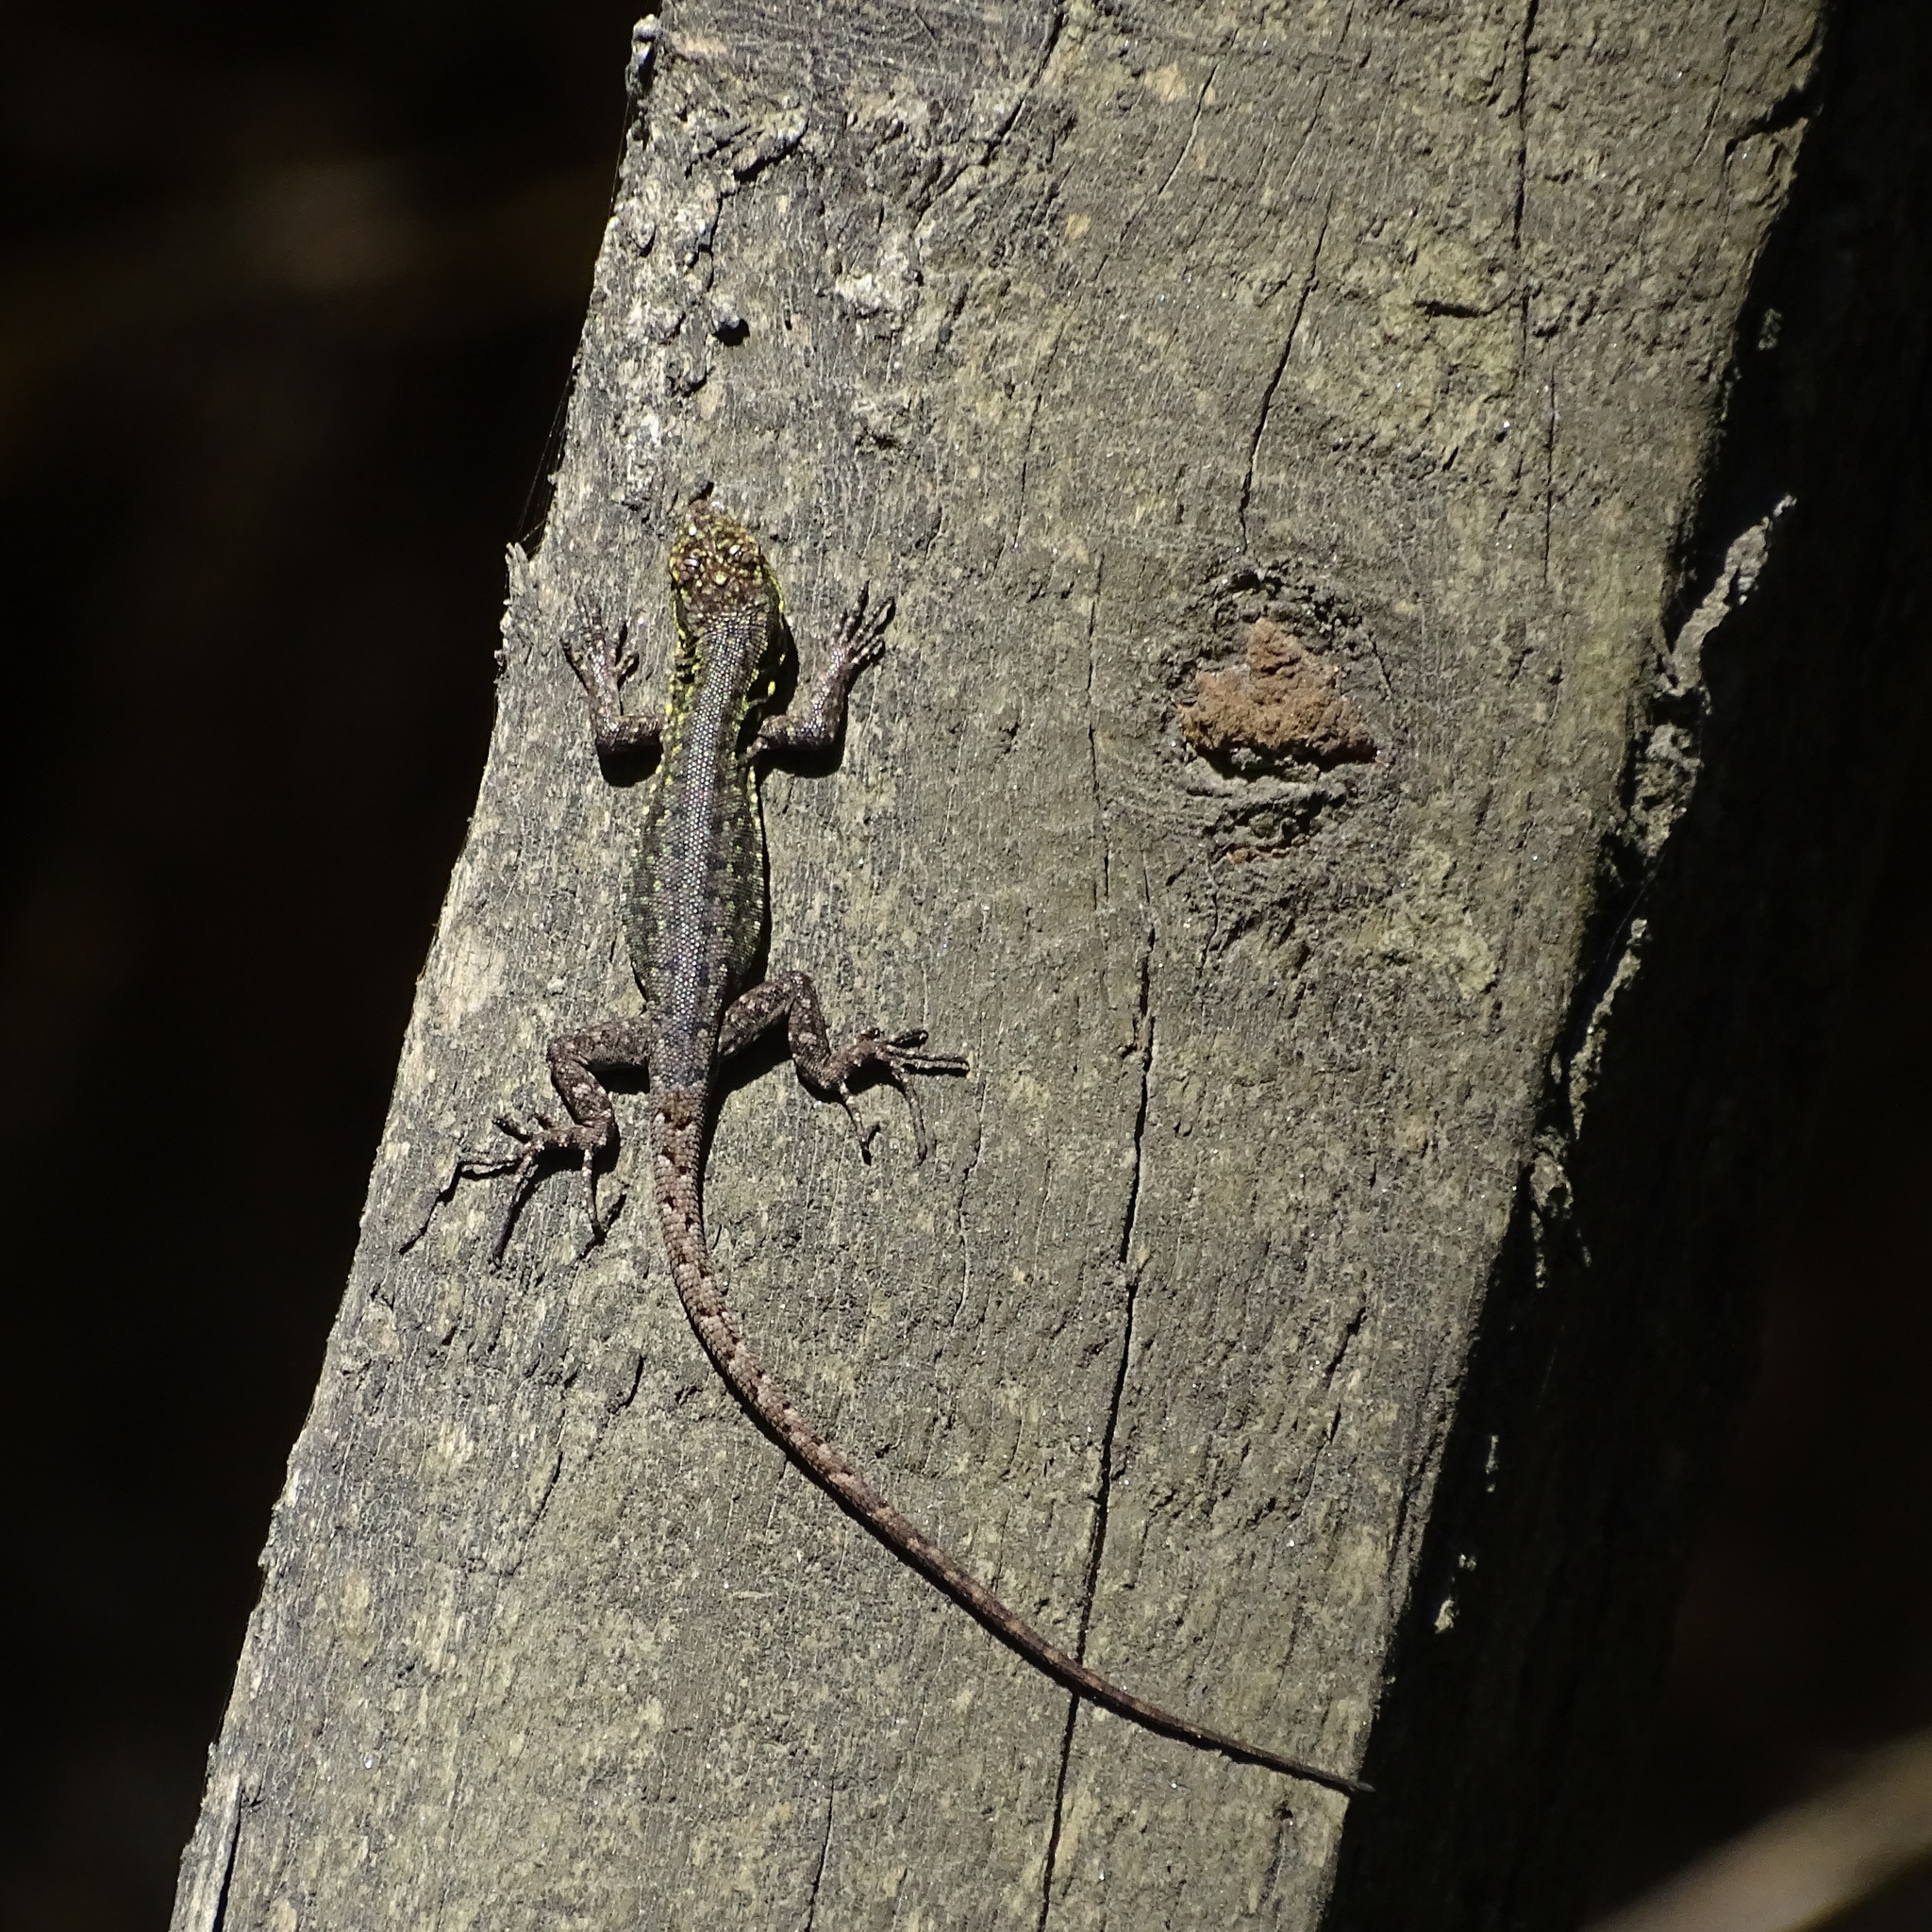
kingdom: Animalia
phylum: Chordata
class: Squamata
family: Liolaemidae
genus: Liolaemus
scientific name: Liolaemus tenuis
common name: Thin tree iguana
